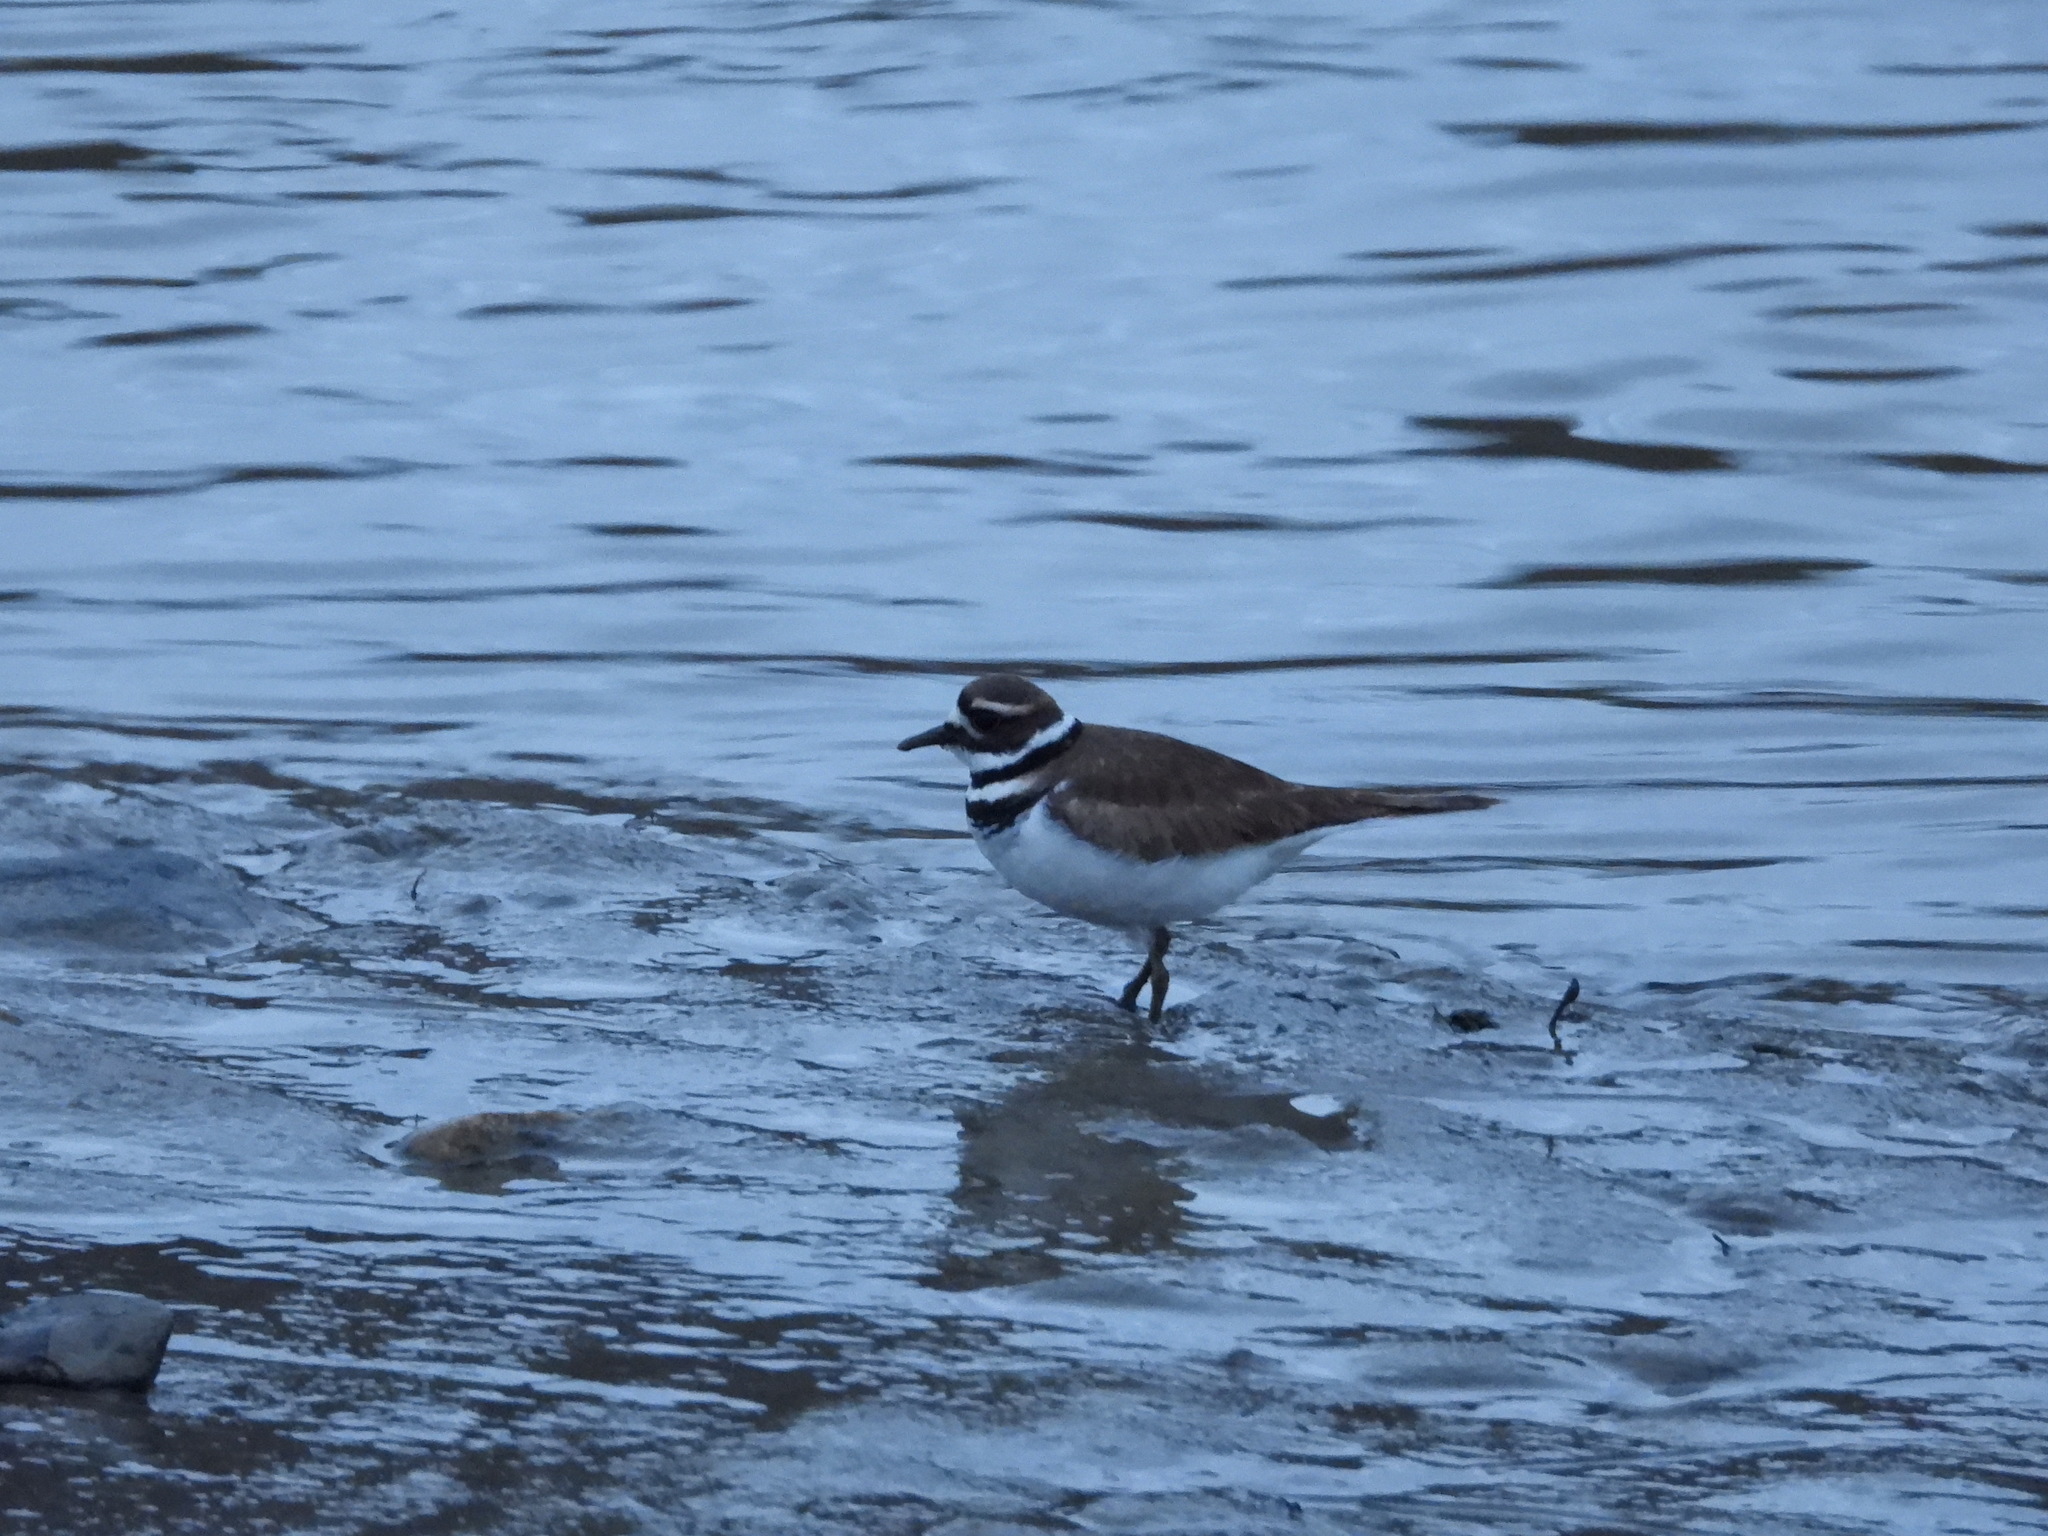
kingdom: Animalia
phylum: Chordata
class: Aves
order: Charadriiformes
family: Charadriidae
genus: Charadrius
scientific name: Charadrius vociferus
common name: Killdeer
